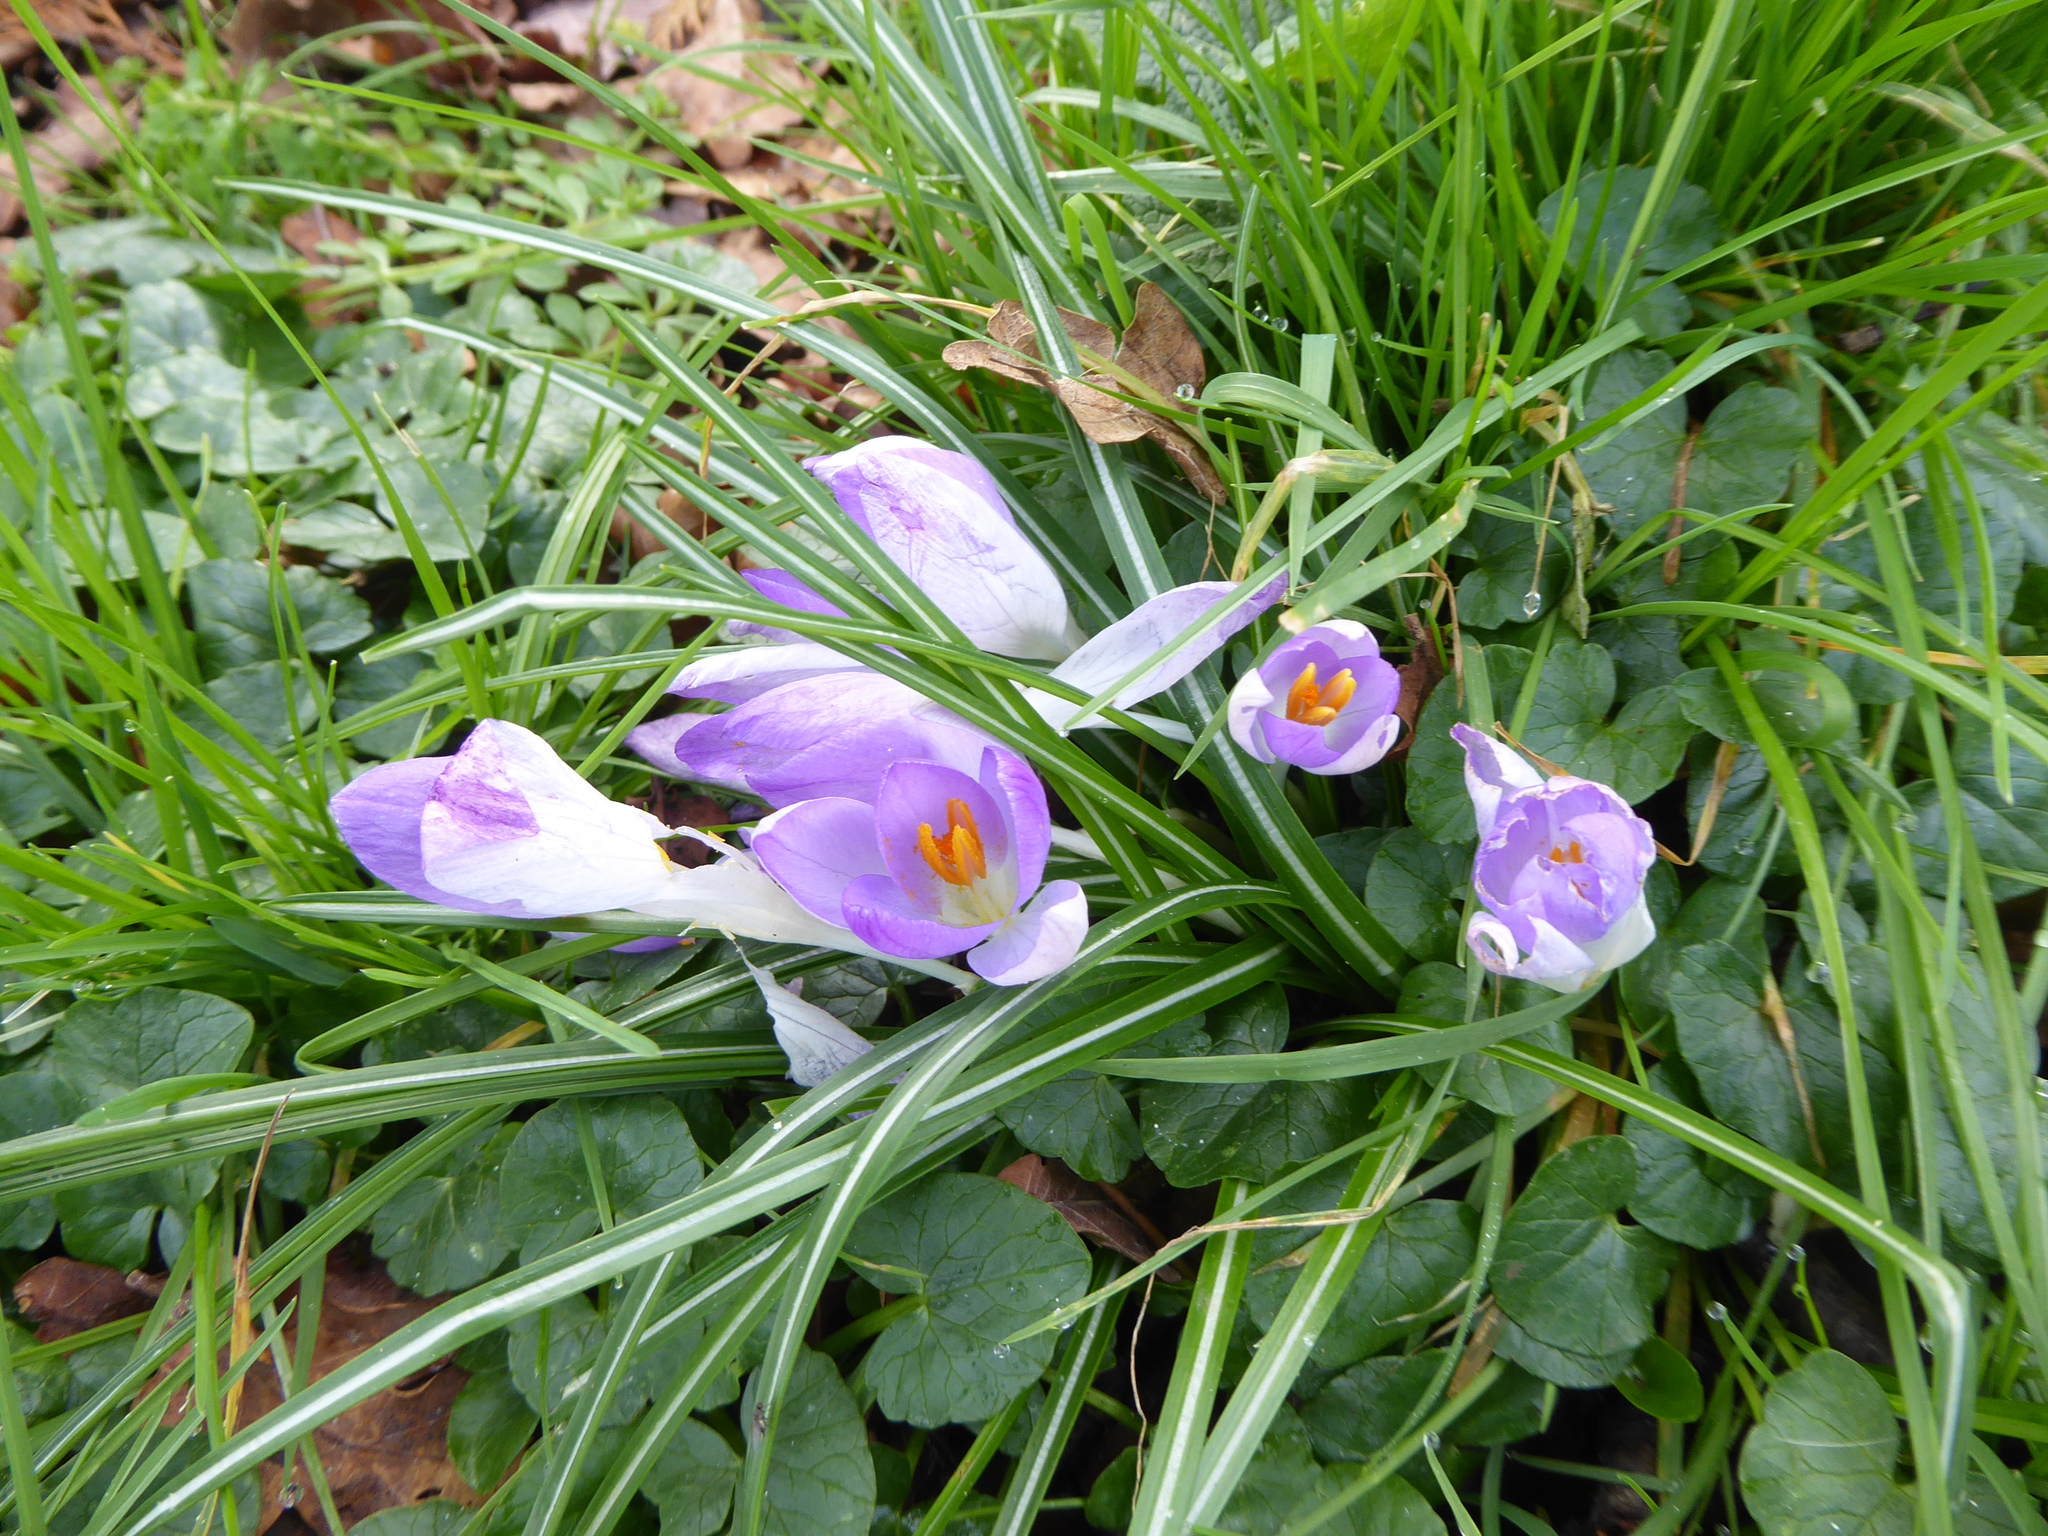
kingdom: Plantae
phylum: Tracheophyta
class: Liliopsida
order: Asparagales
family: Iridaceae
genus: Crocus
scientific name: Crocus tommasinianus
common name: Early crocus
